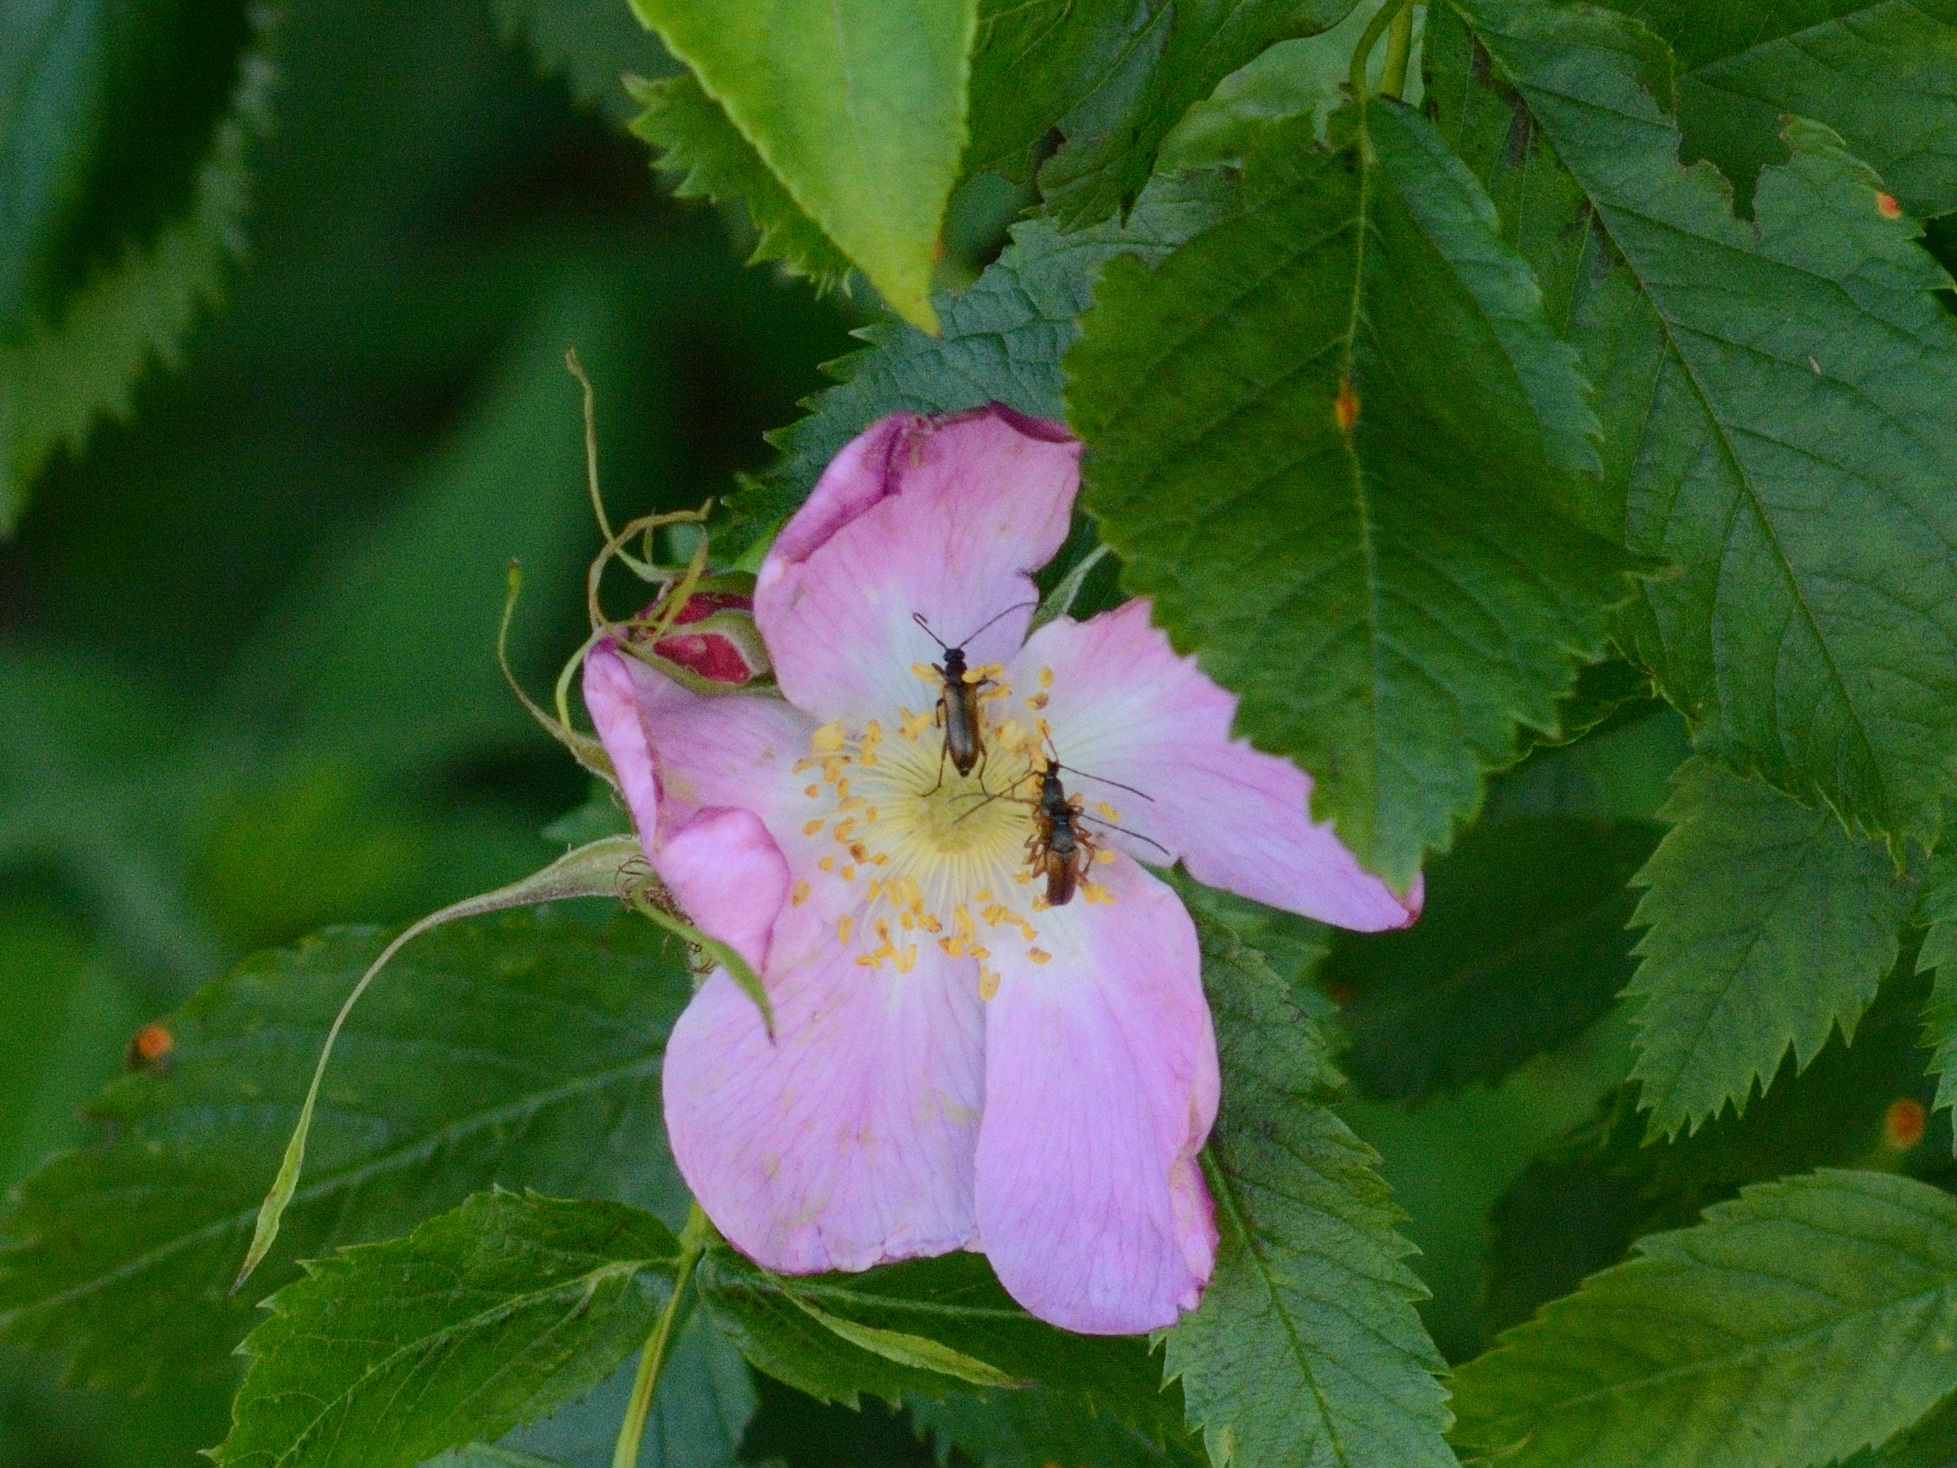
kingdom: Animalia
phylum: Arthropoda
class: Insecta
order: Coleoptera
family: Cerambycidae
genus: Alosterna
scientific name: Alosterna tabacicolor
